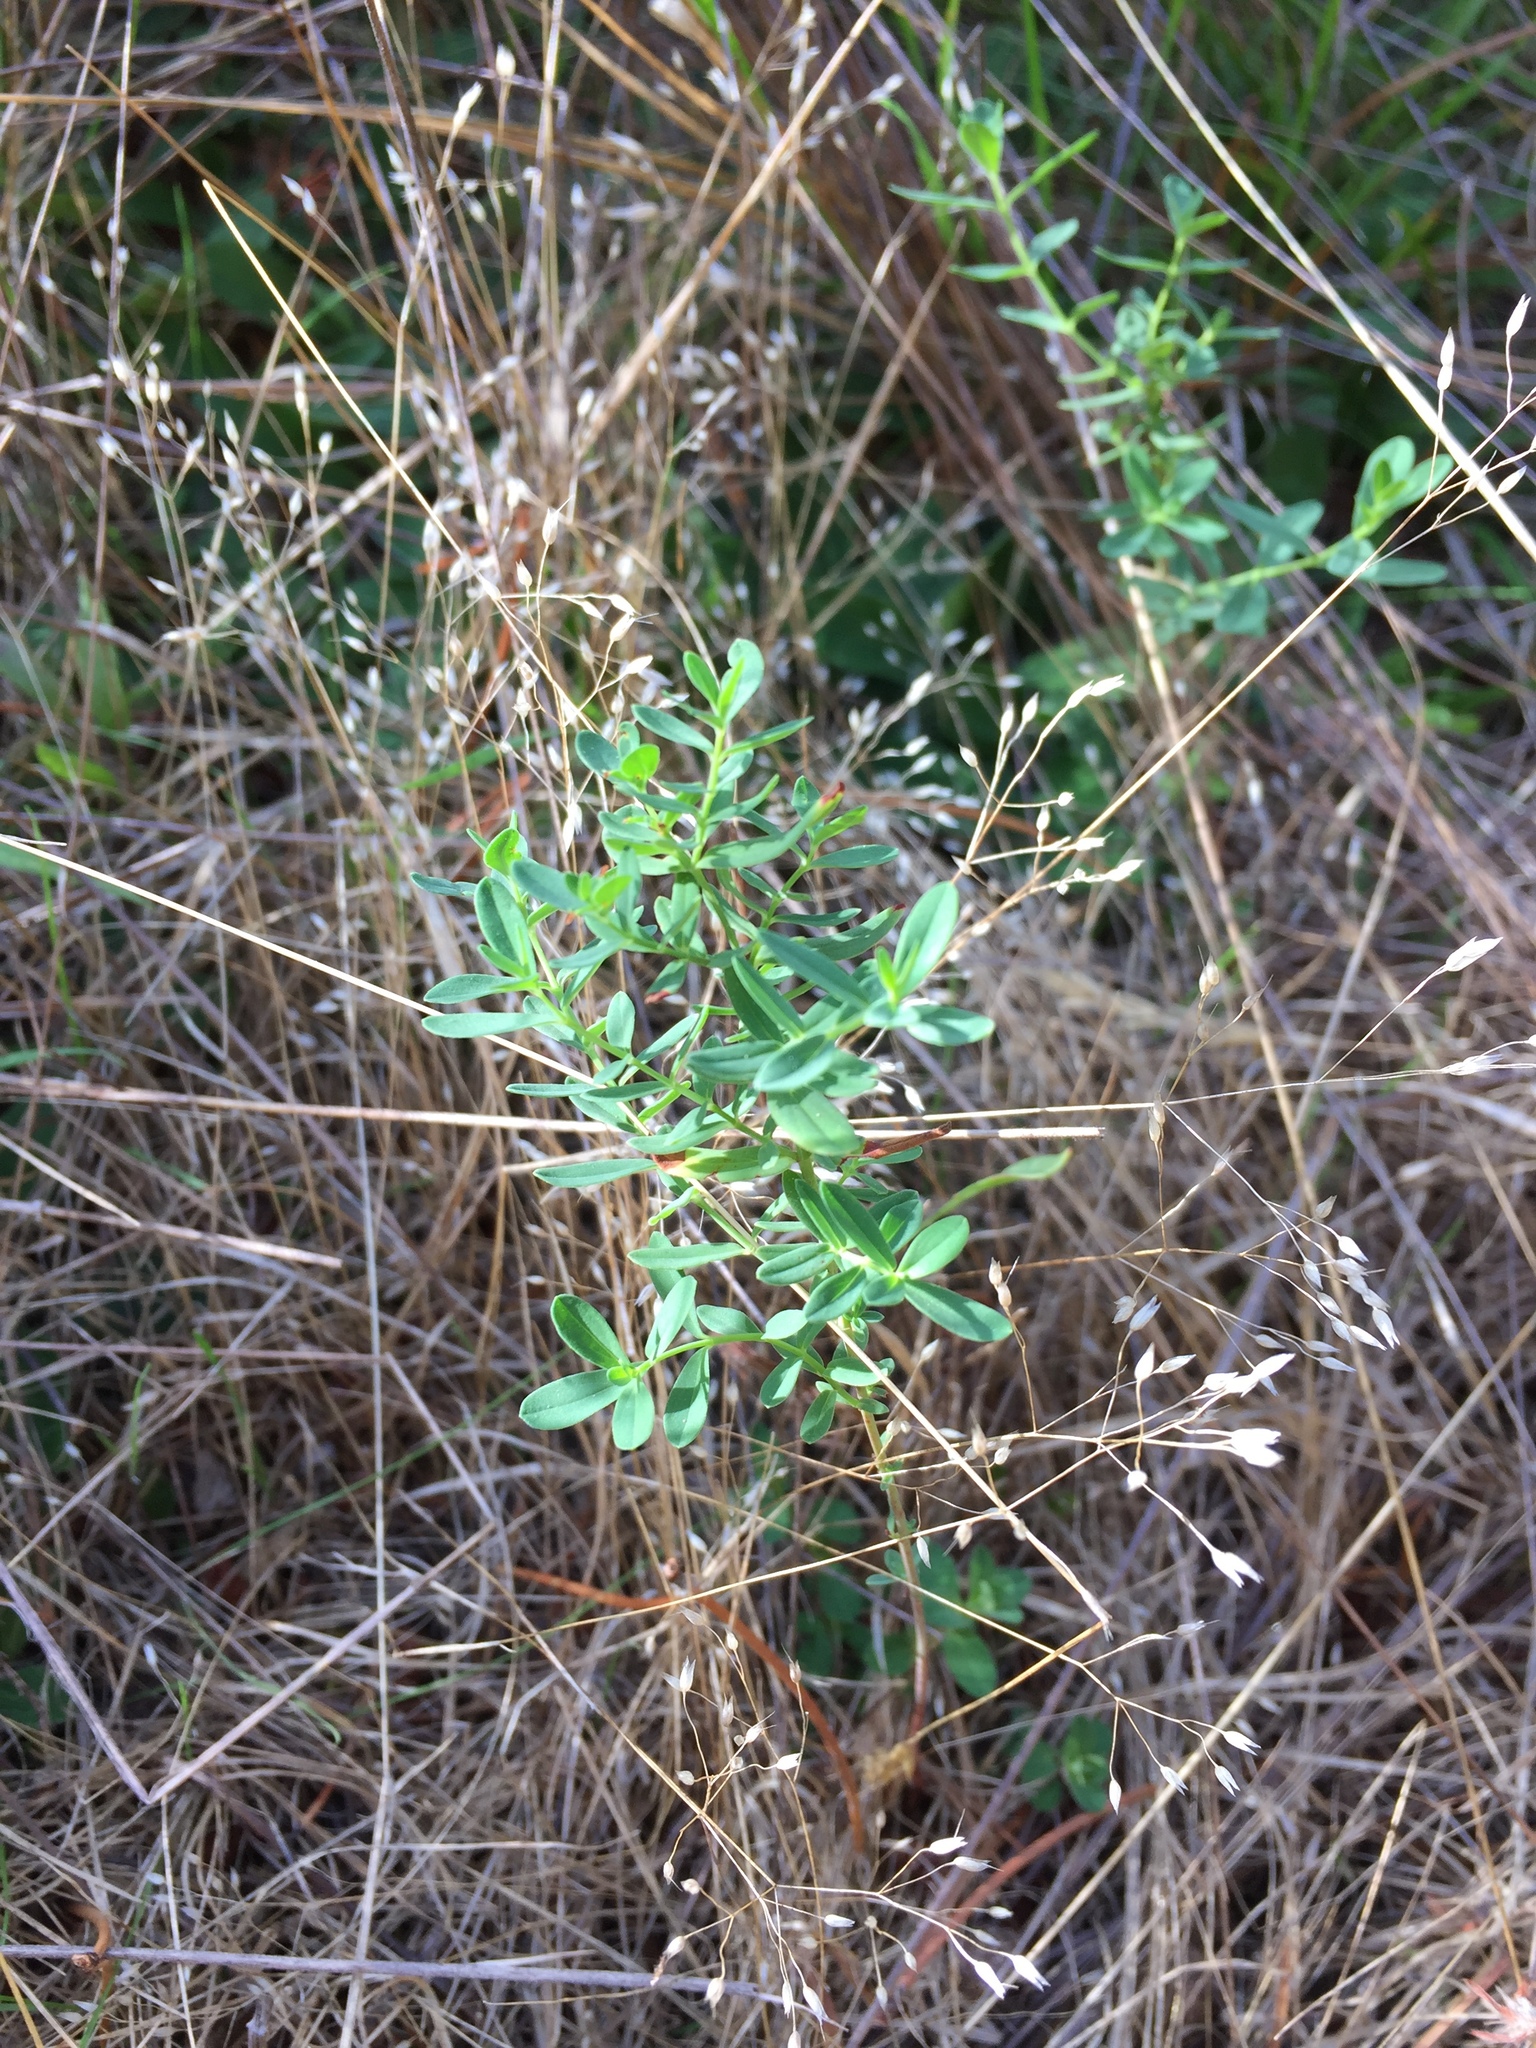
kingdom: Plantae
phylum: Tracheophyta
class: Magnoliopsida
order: Malpighiales
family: Hypericaceae
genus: Hypericum
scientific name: Hypericum perforatum
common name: Common st. johnswort
